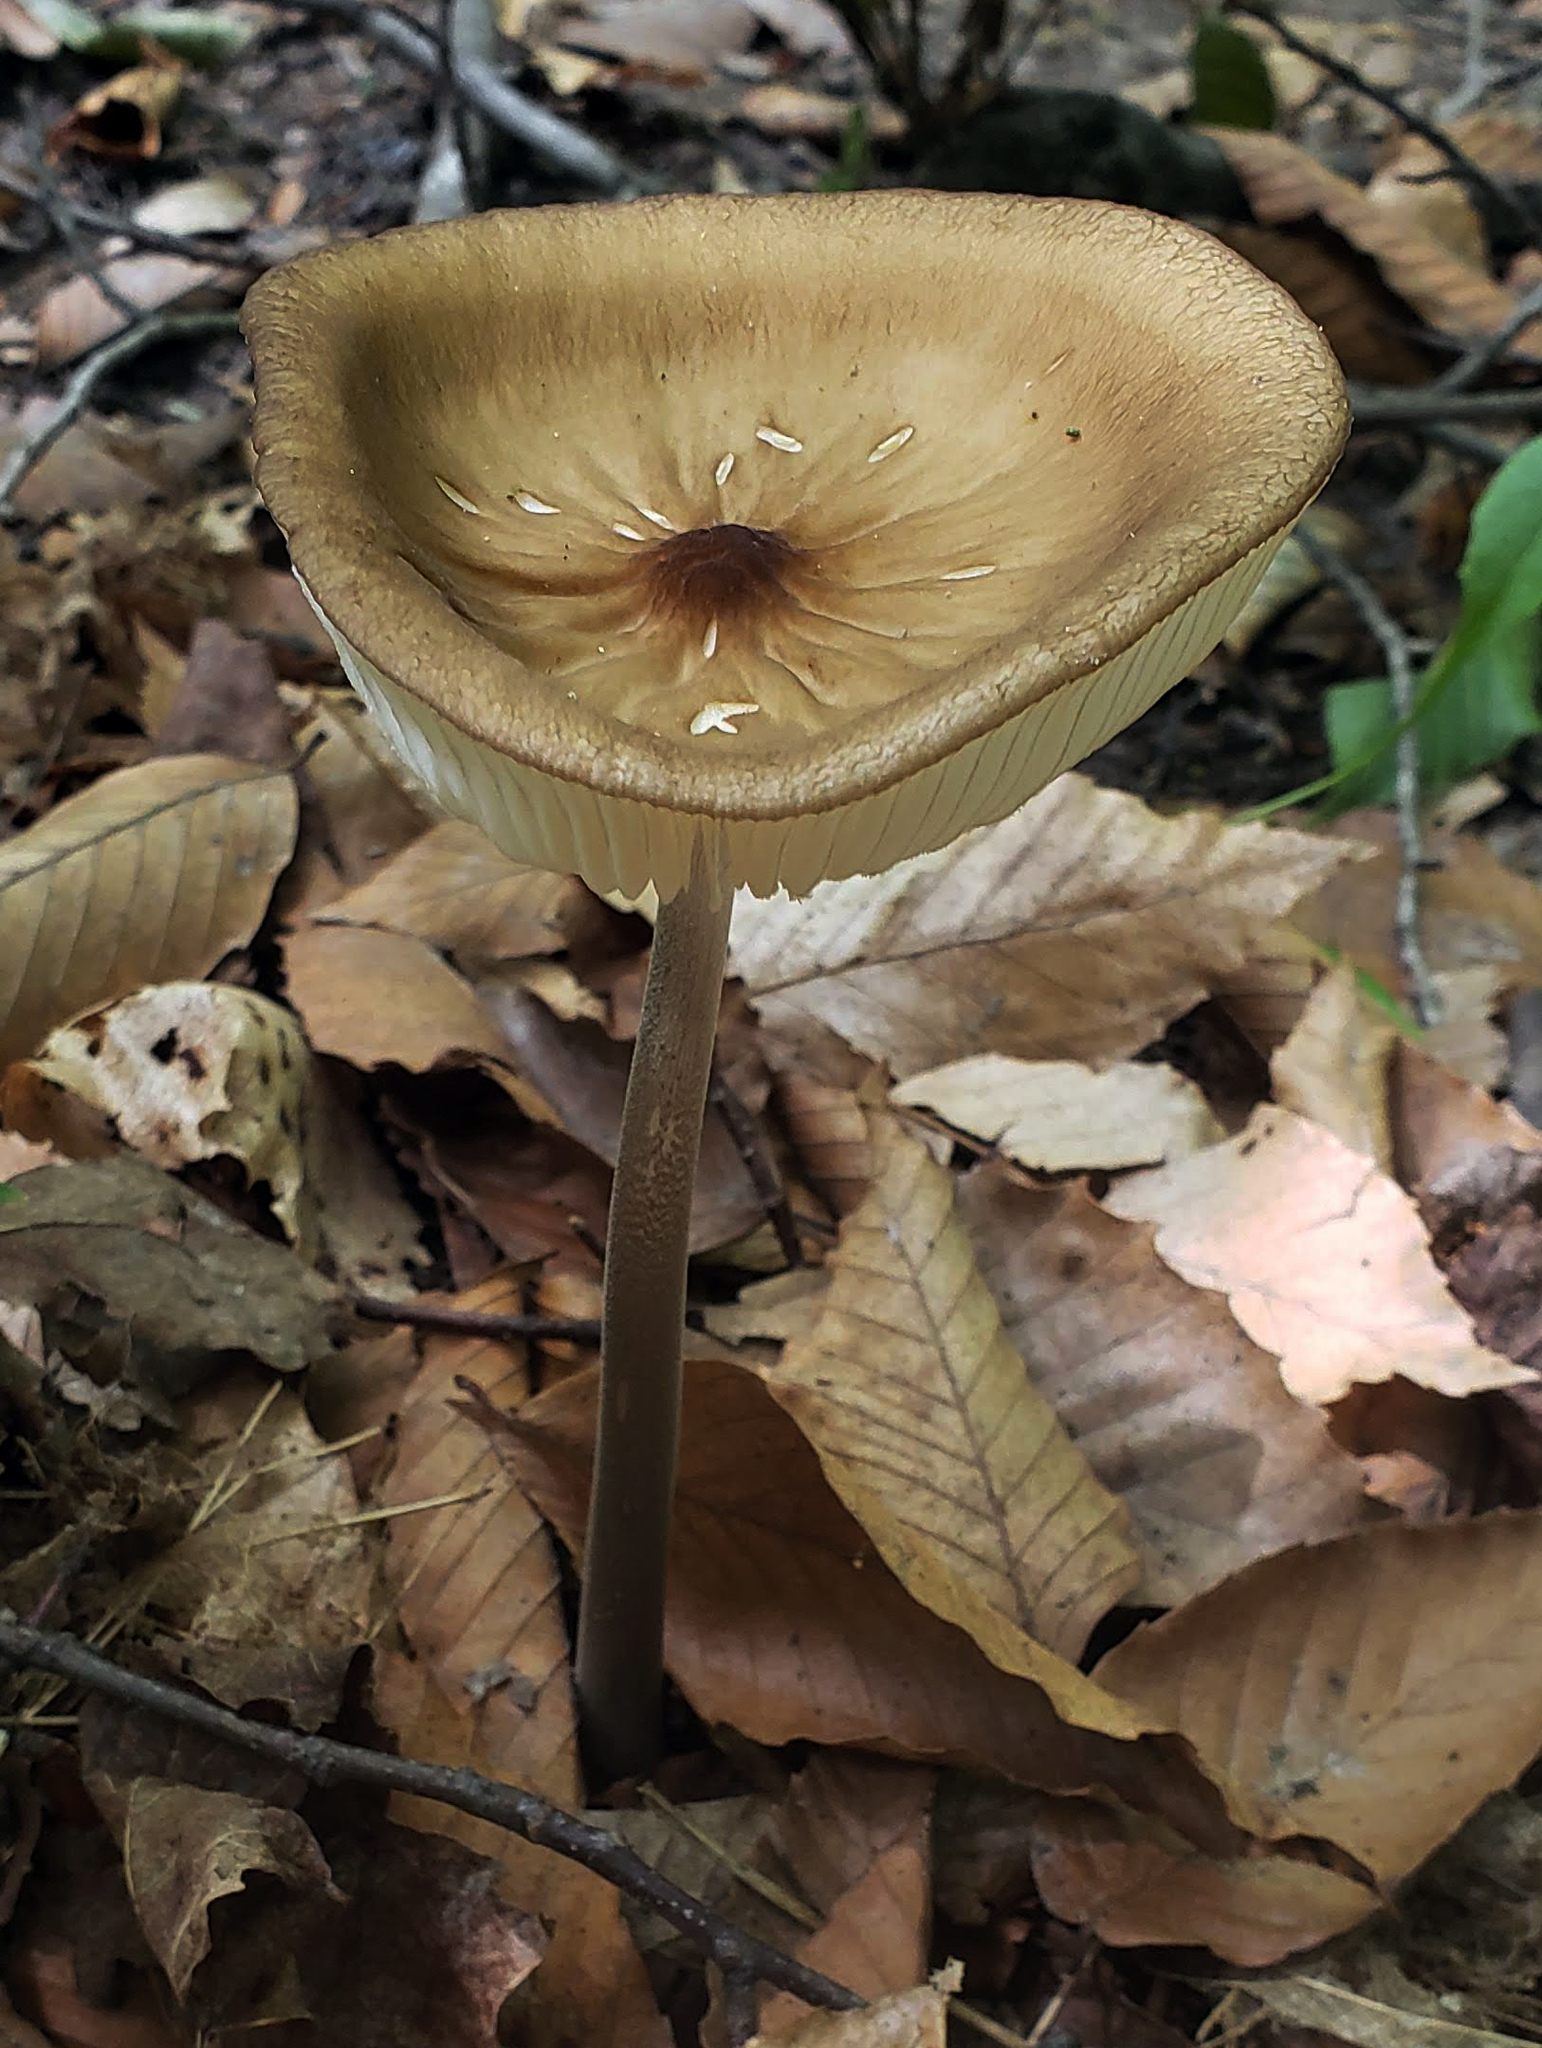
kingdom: Fungi
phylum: Basidiomycota
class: Agaricomycetes
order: Agaricales
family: Physalacriaceae
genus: Hymenopellis
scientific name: Hymenopellis furfuracea
